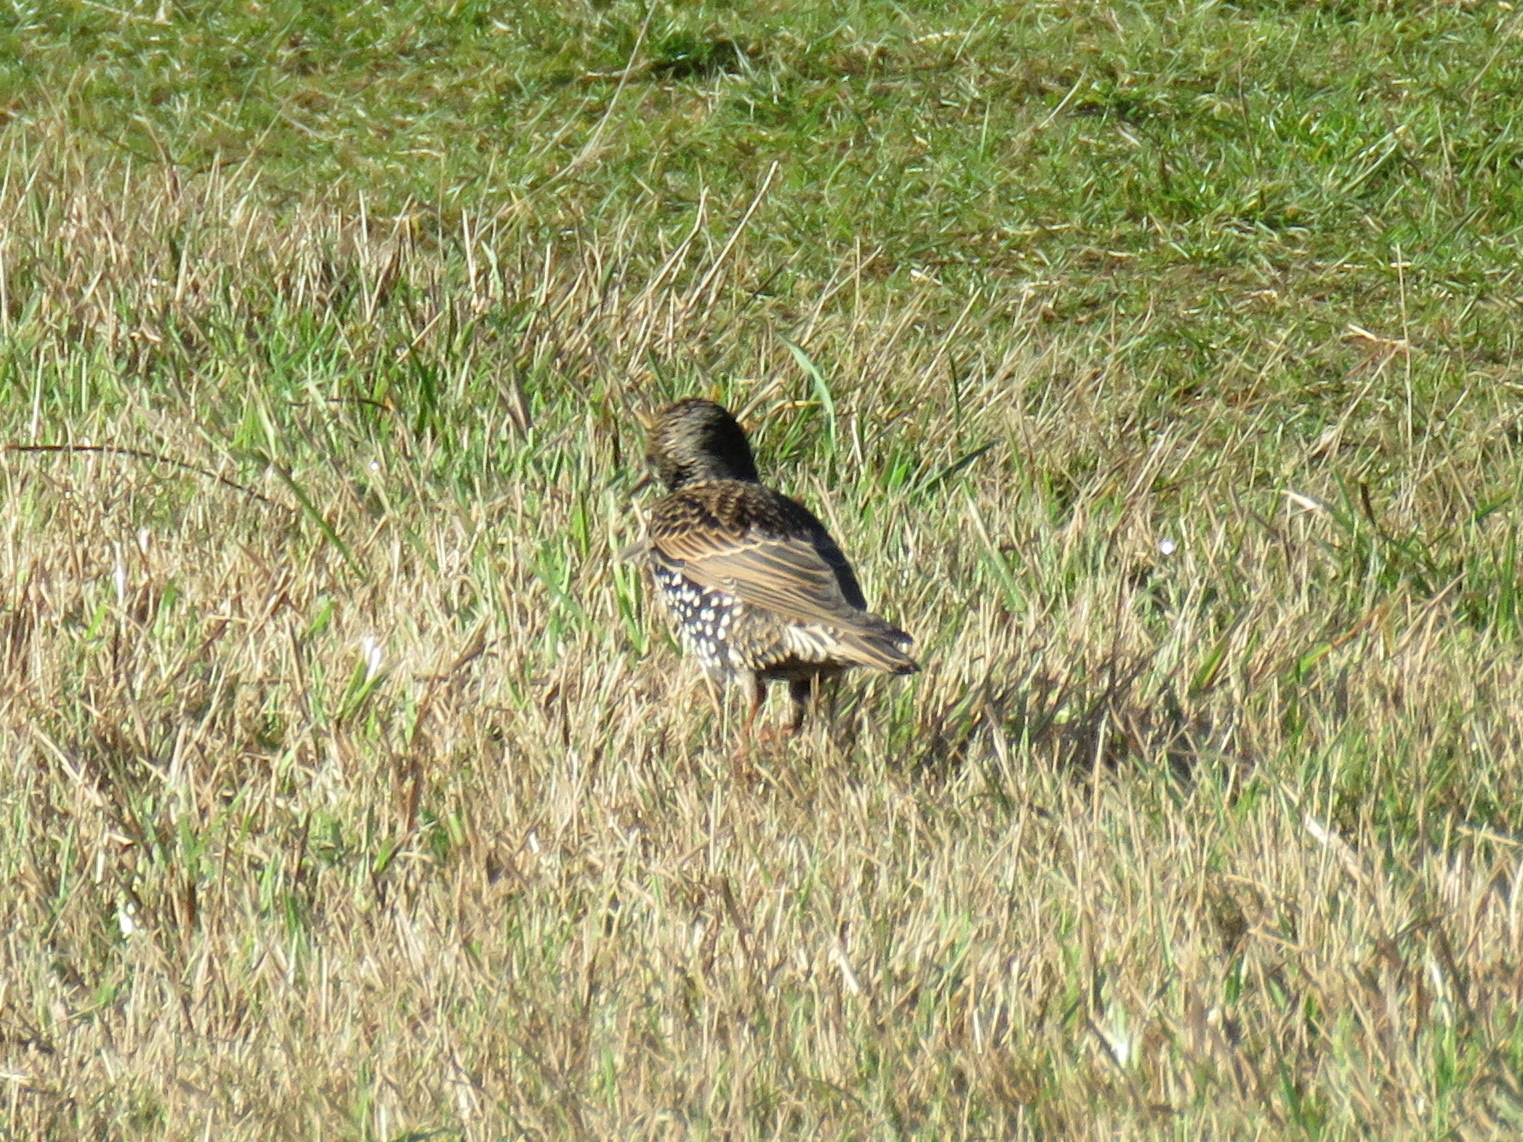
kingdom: Animalia
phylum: Chordata
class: Aves
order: Passeriformes
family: Sturnidae
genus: Sturnus
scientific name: Sturnus vulgaris
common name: Common starling
